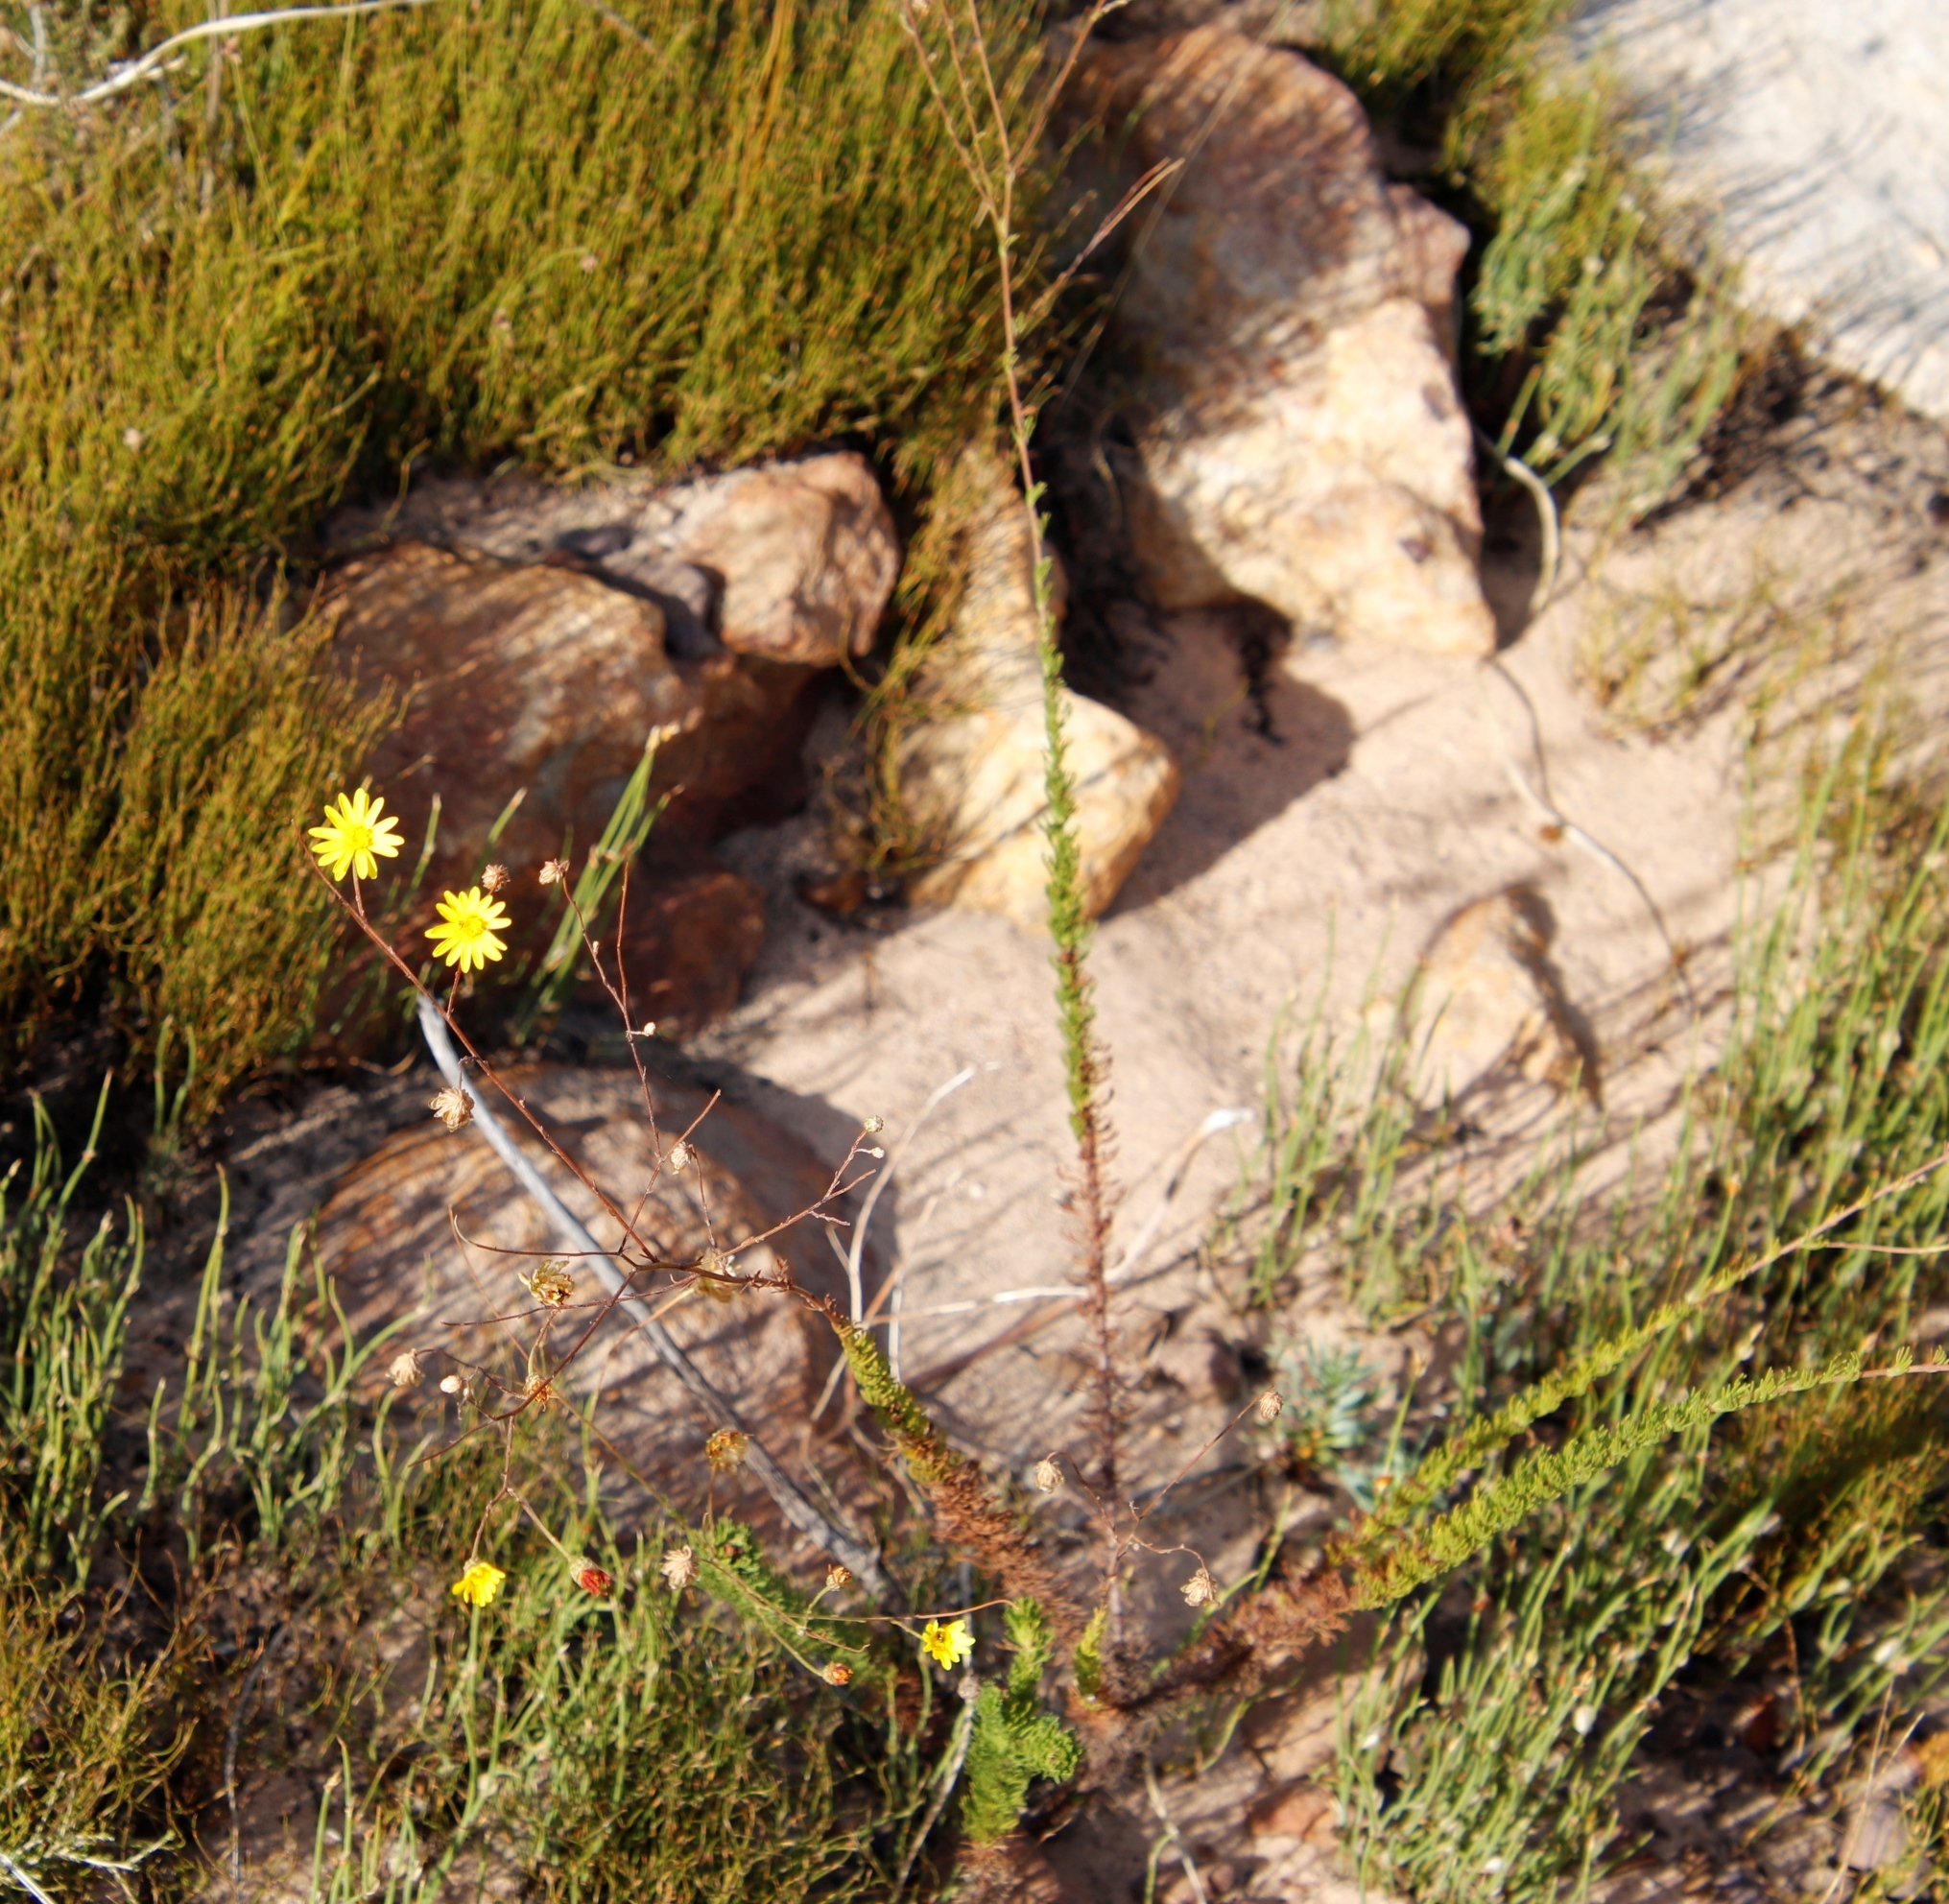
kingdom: Plantae
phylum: Tracheophyta
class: Magnoliopsida
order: Asterales
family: Asteraceae
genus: Ursinia
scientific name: Ursinia punctata
